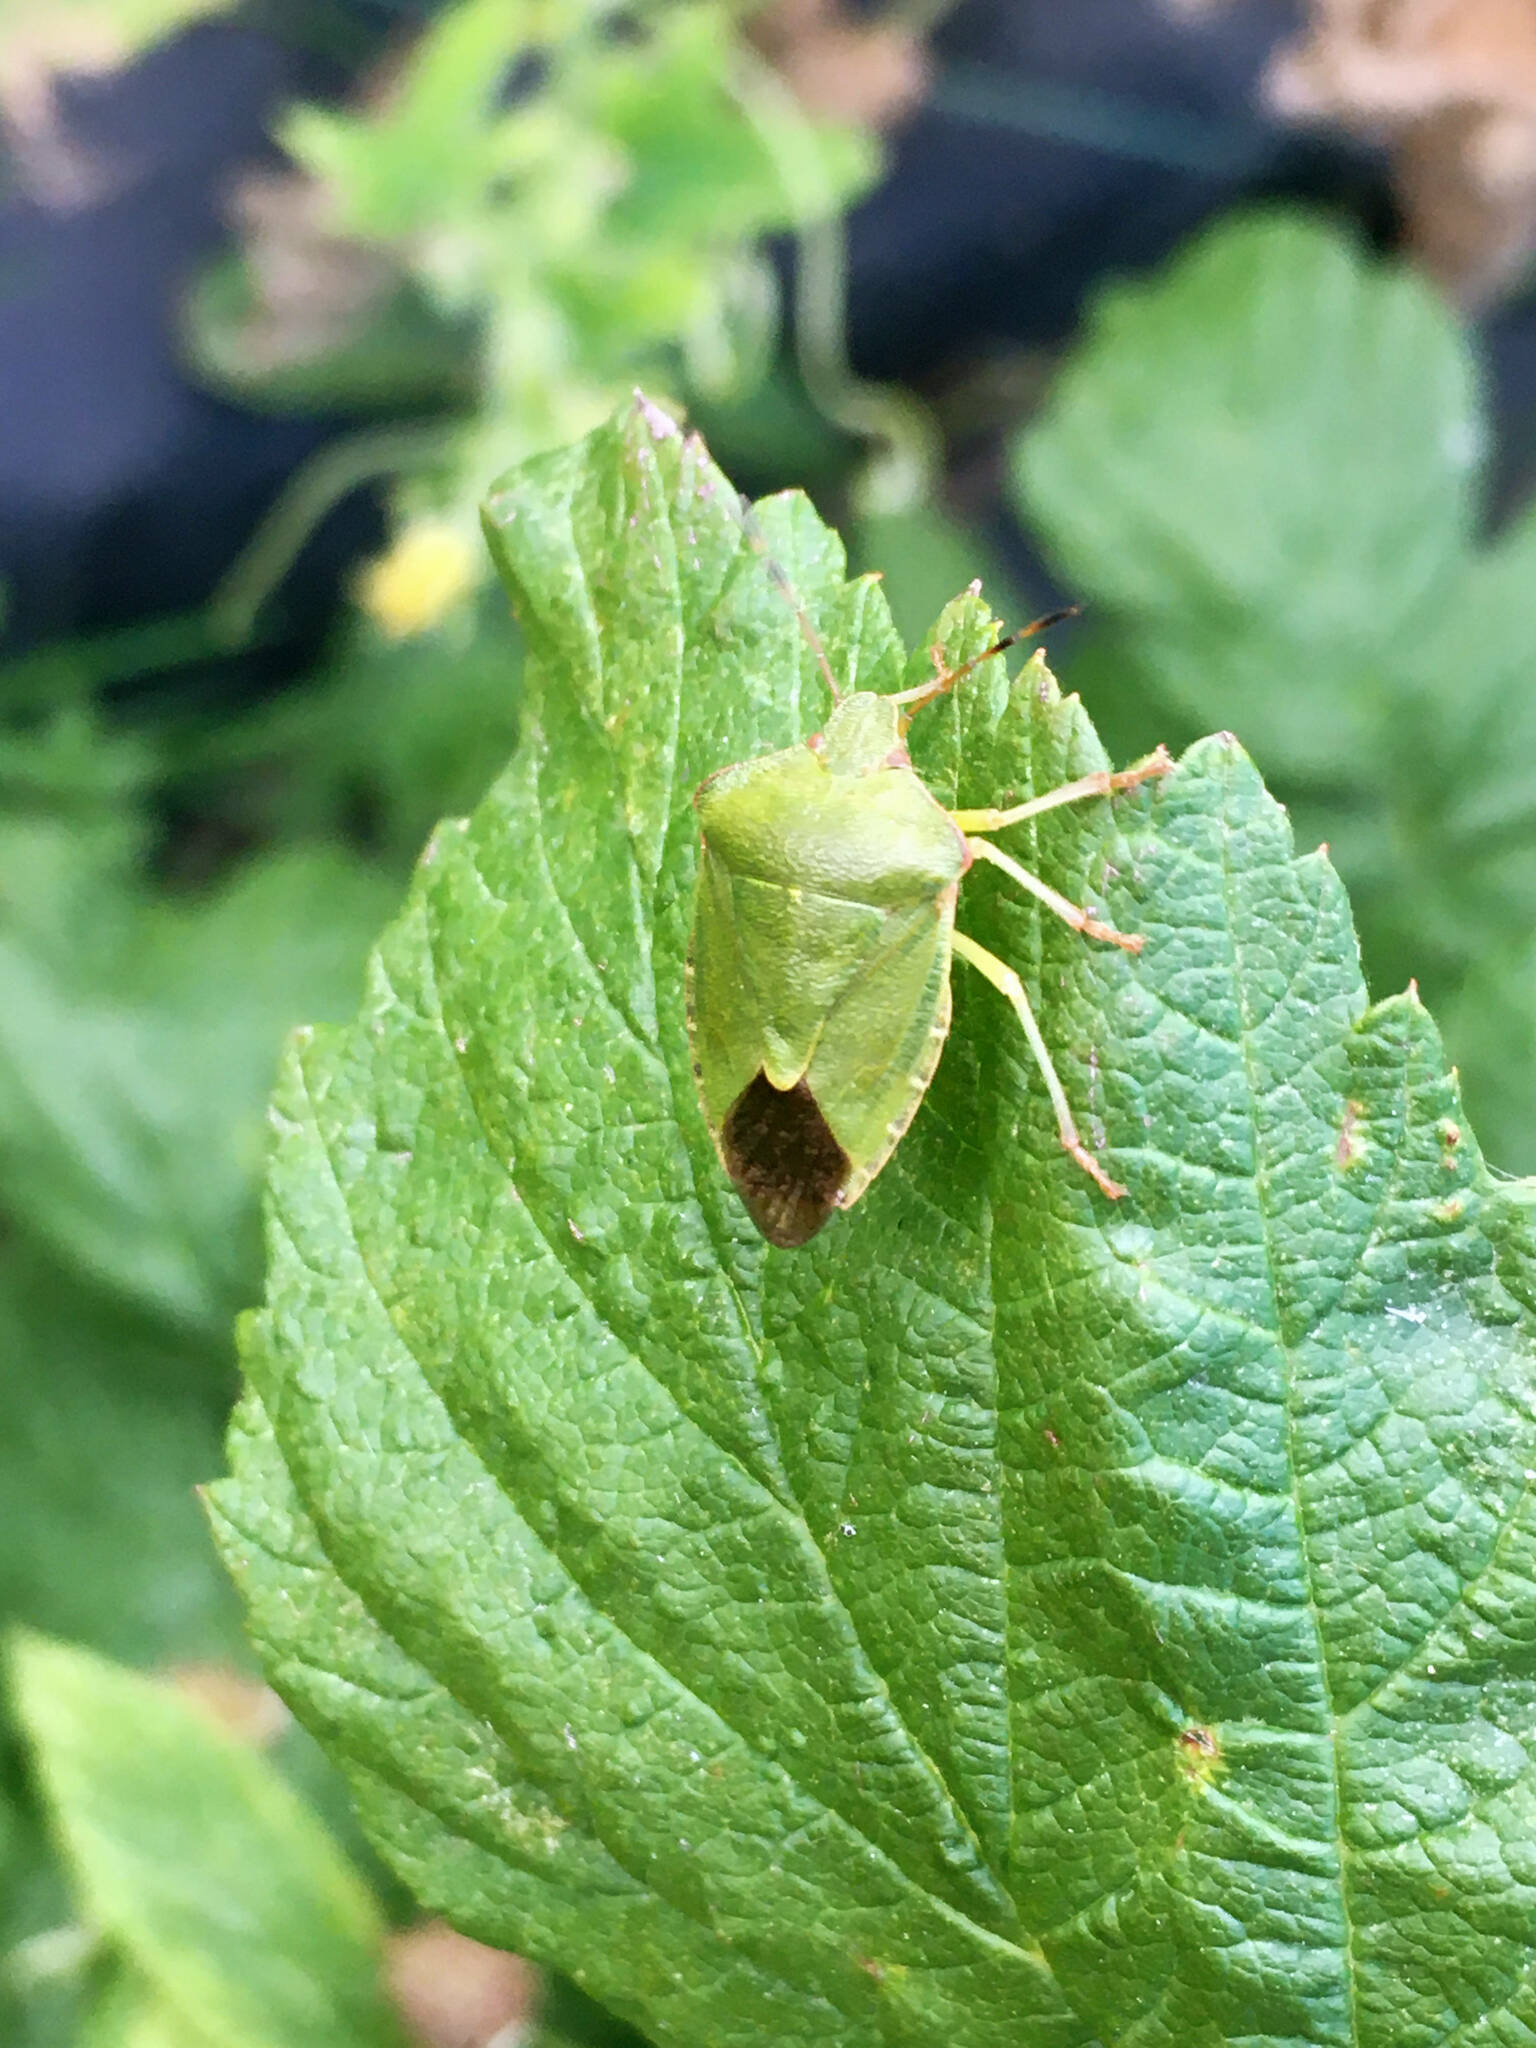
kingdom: Animalia
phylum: Arthropoda
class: Insecta
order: Hemiptera
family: Pentatomidae
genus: Palomena
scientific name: Palomena prasina
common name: Green shieldbug
